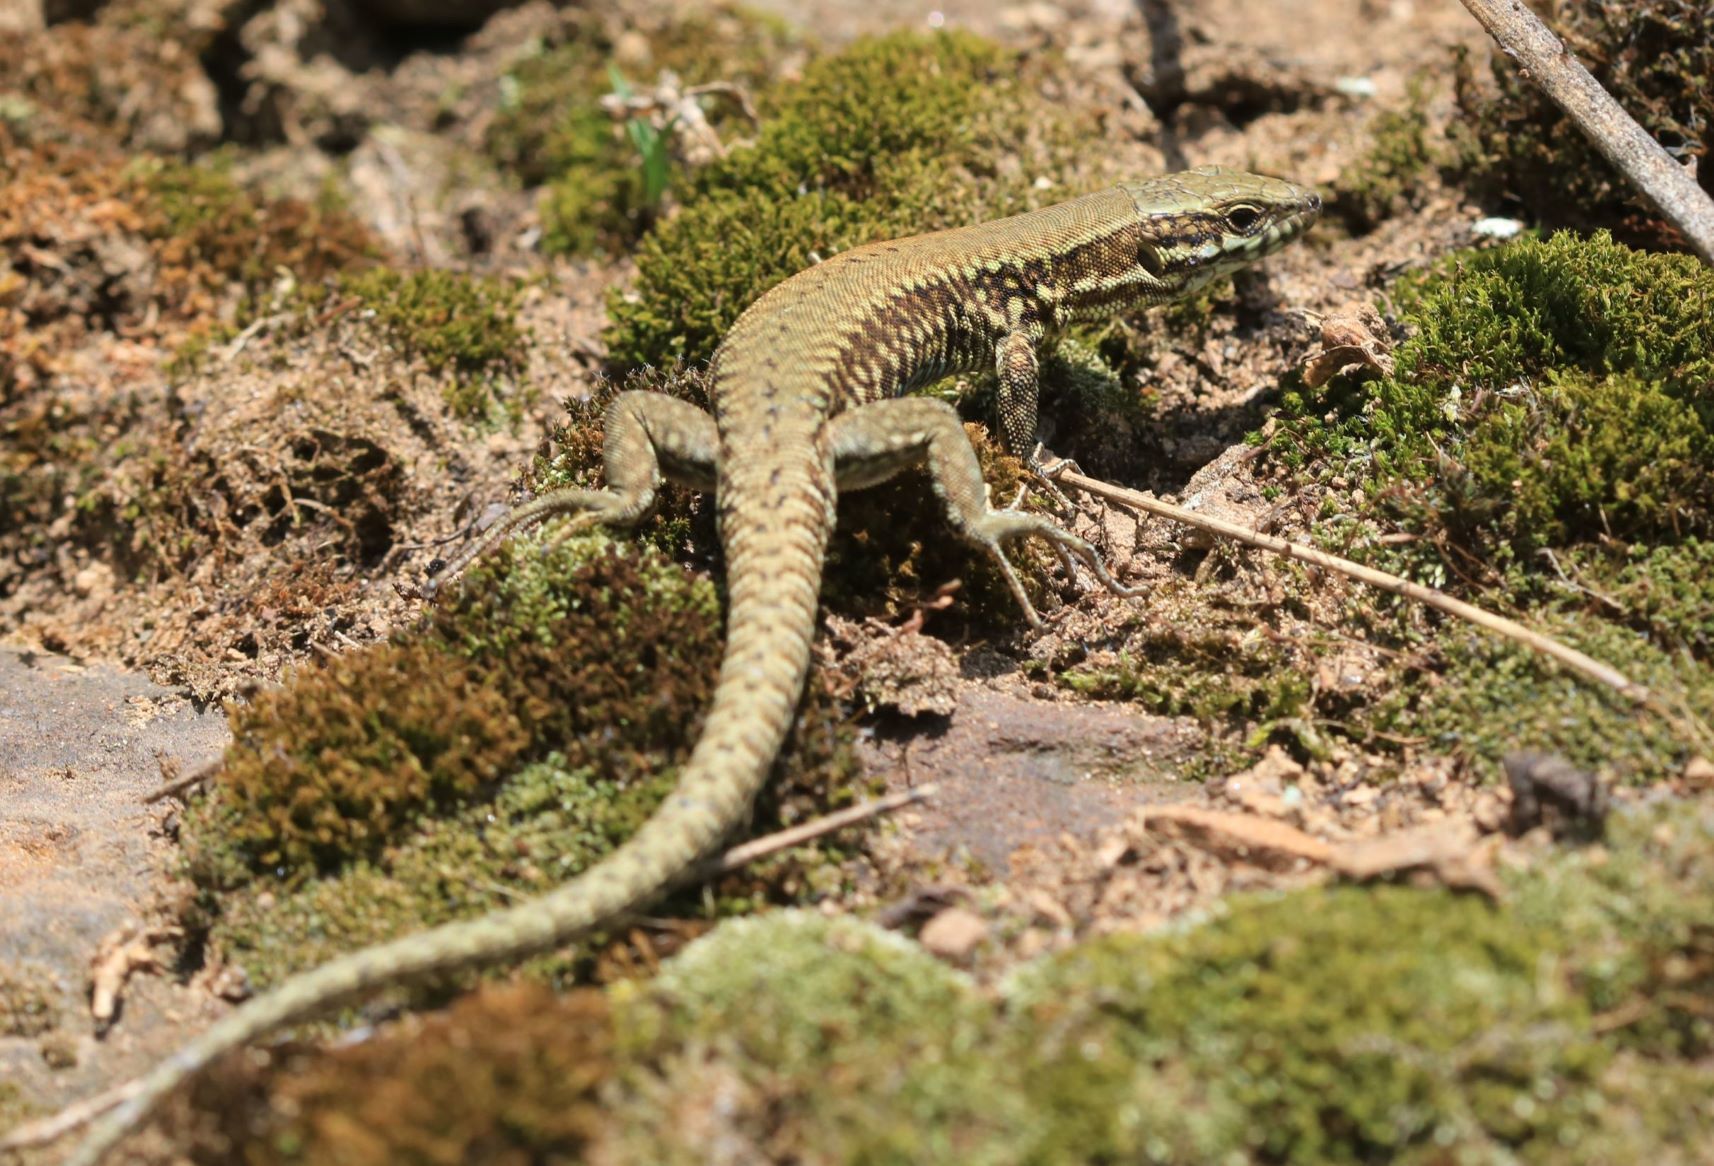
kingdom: Animalia
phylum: Chordata
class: Squamata
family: Lacertidae
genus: Podarcis
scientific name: Podarcis muralis
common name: Common wall lizard
